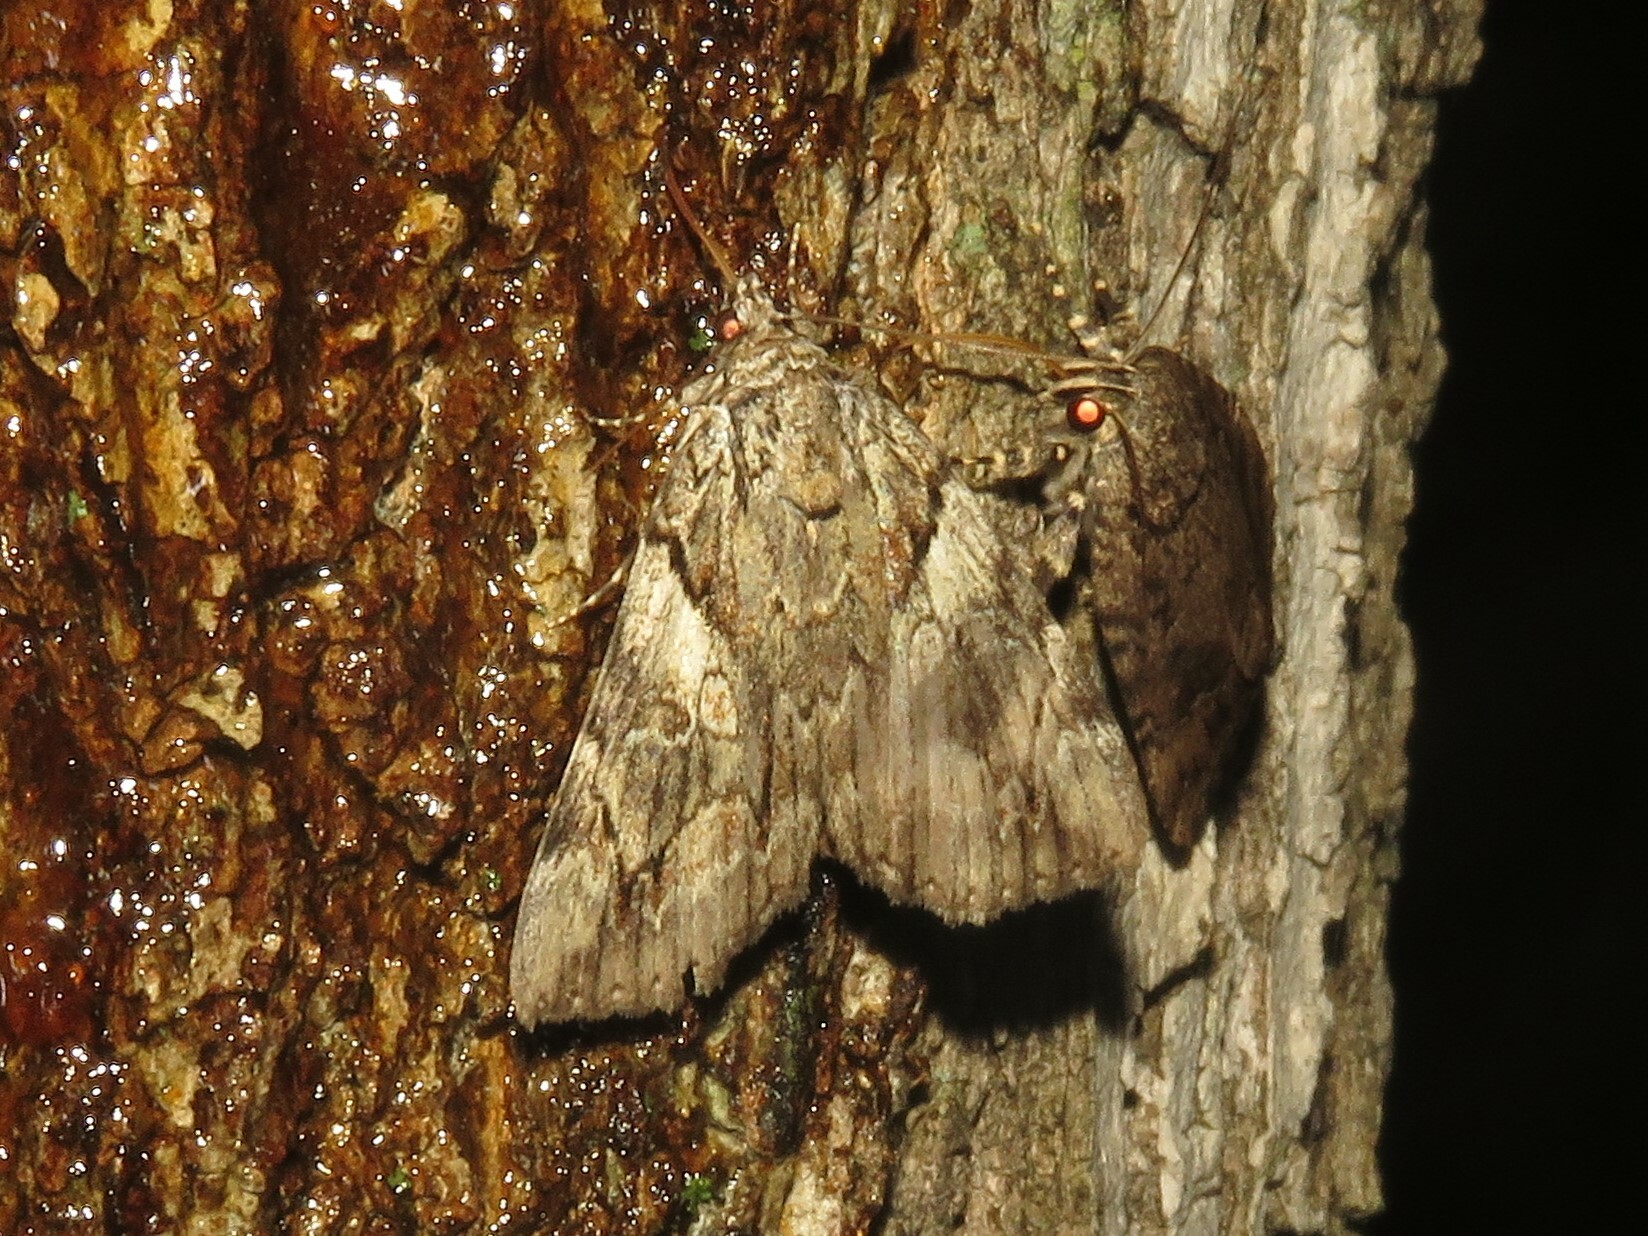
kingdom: Animalia
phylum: Arthropoda
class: Insecta
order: Lepidoptera
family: Erebidae
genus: Catocala
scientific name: Catocala blandula
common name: Charming underwing
